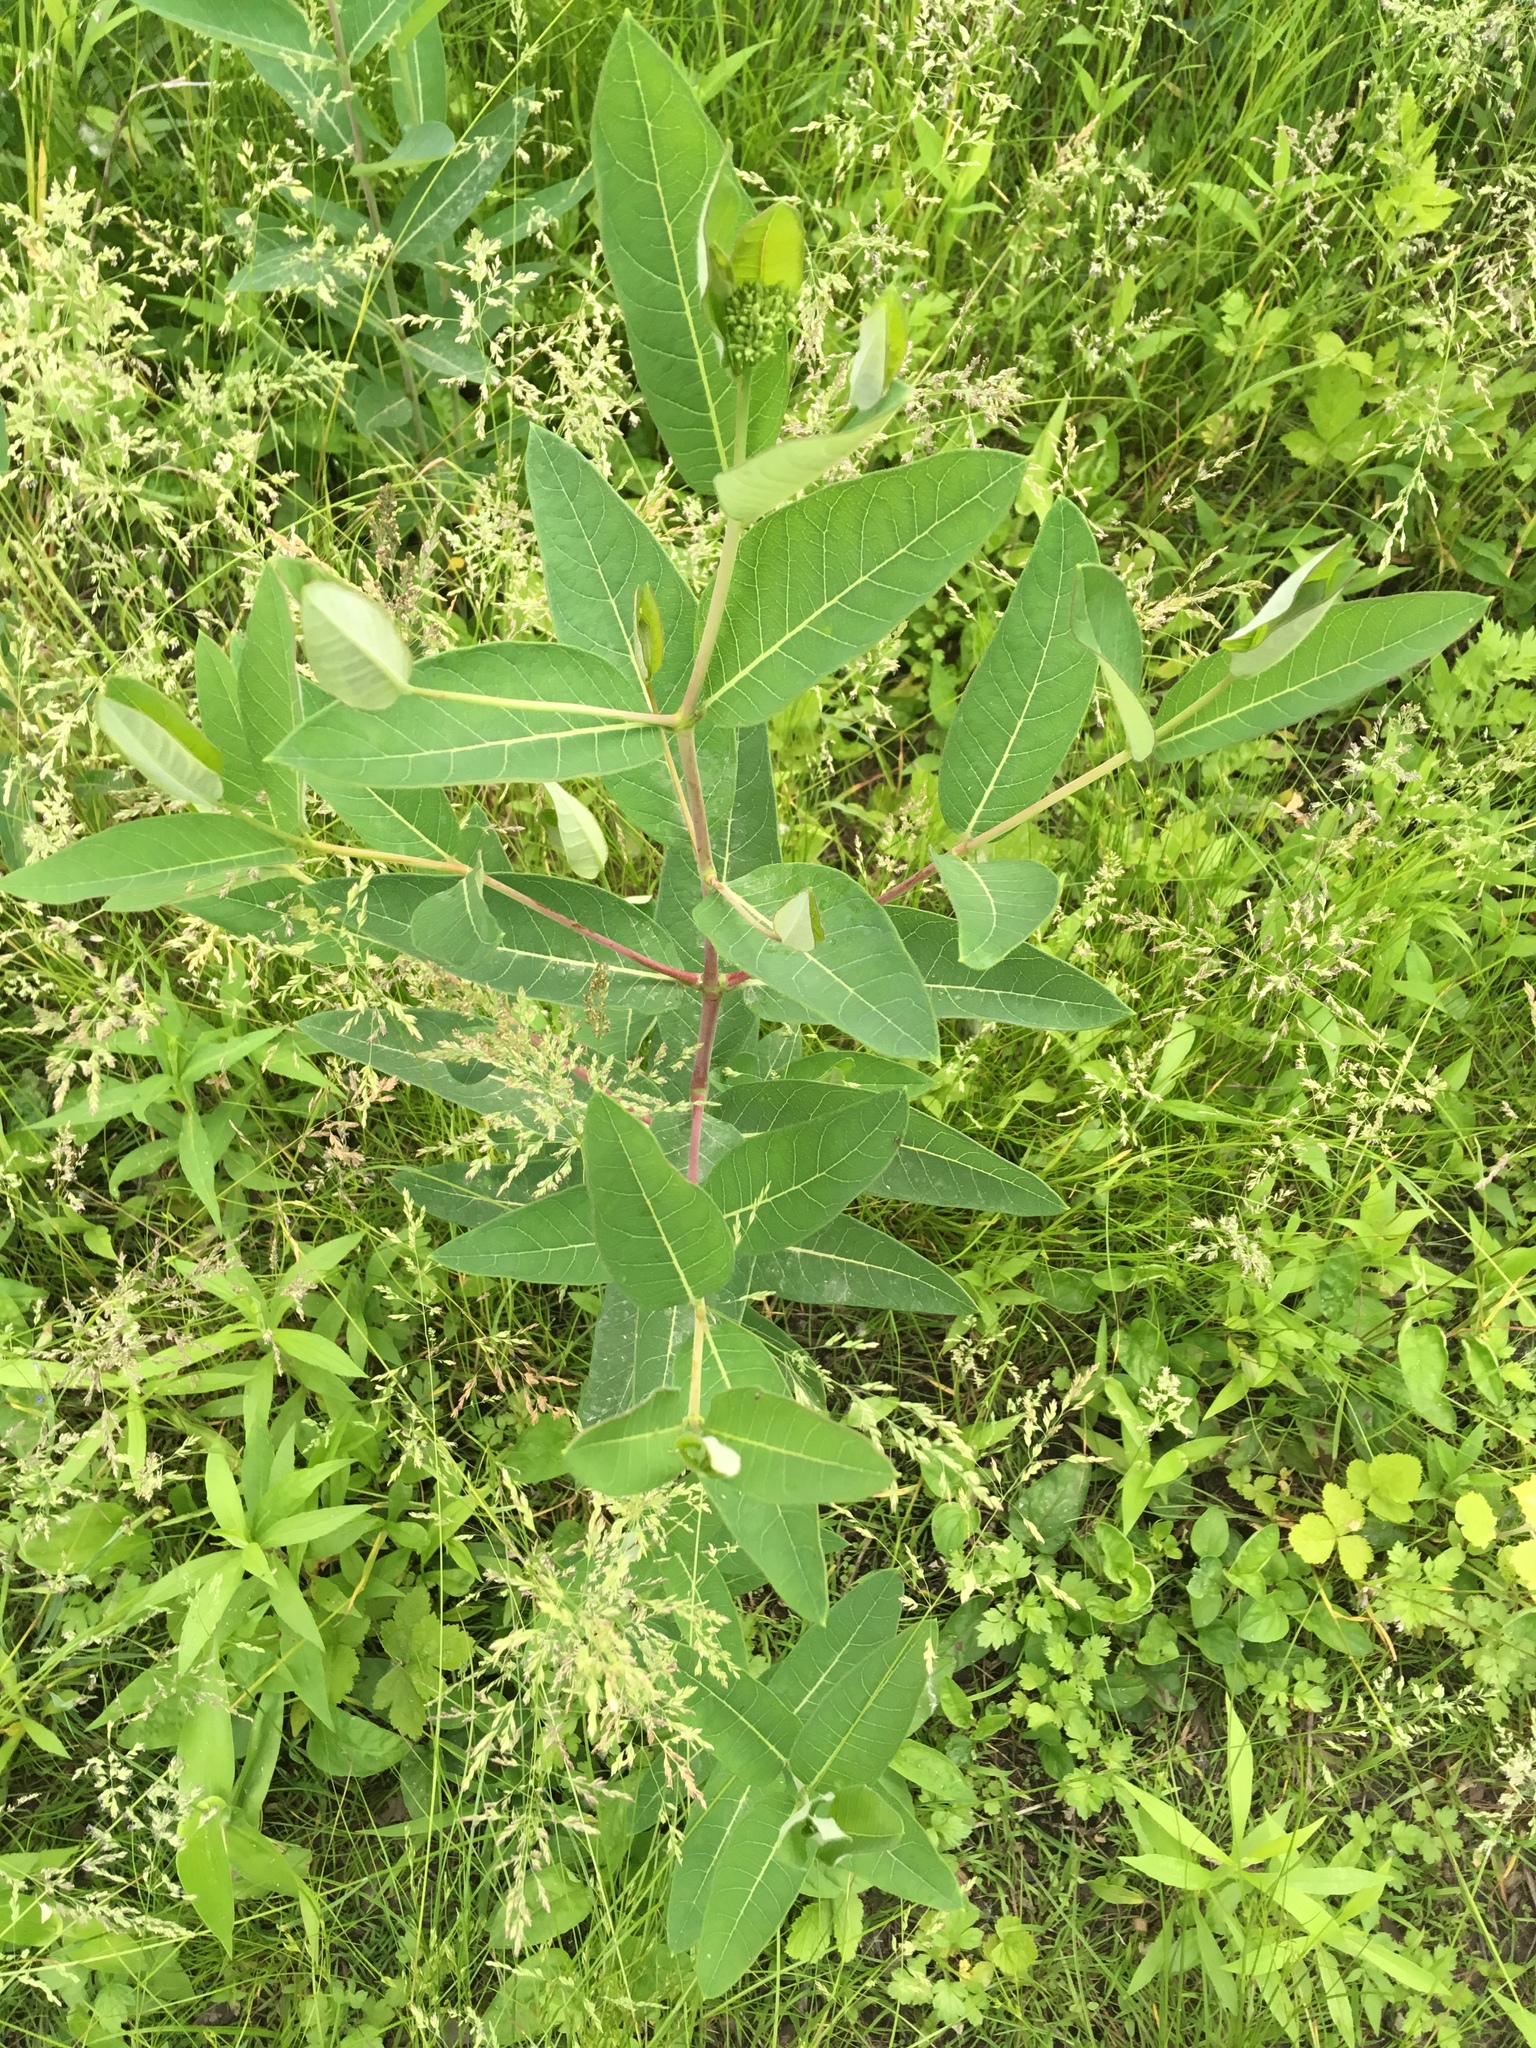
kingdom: Plantae
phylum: Tracheophyta
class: Magnoliopsida
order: Gentianales
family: Apocynaceae
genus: Apocynum
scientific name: Apocynum cannabinum
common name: Hemp dogbane
